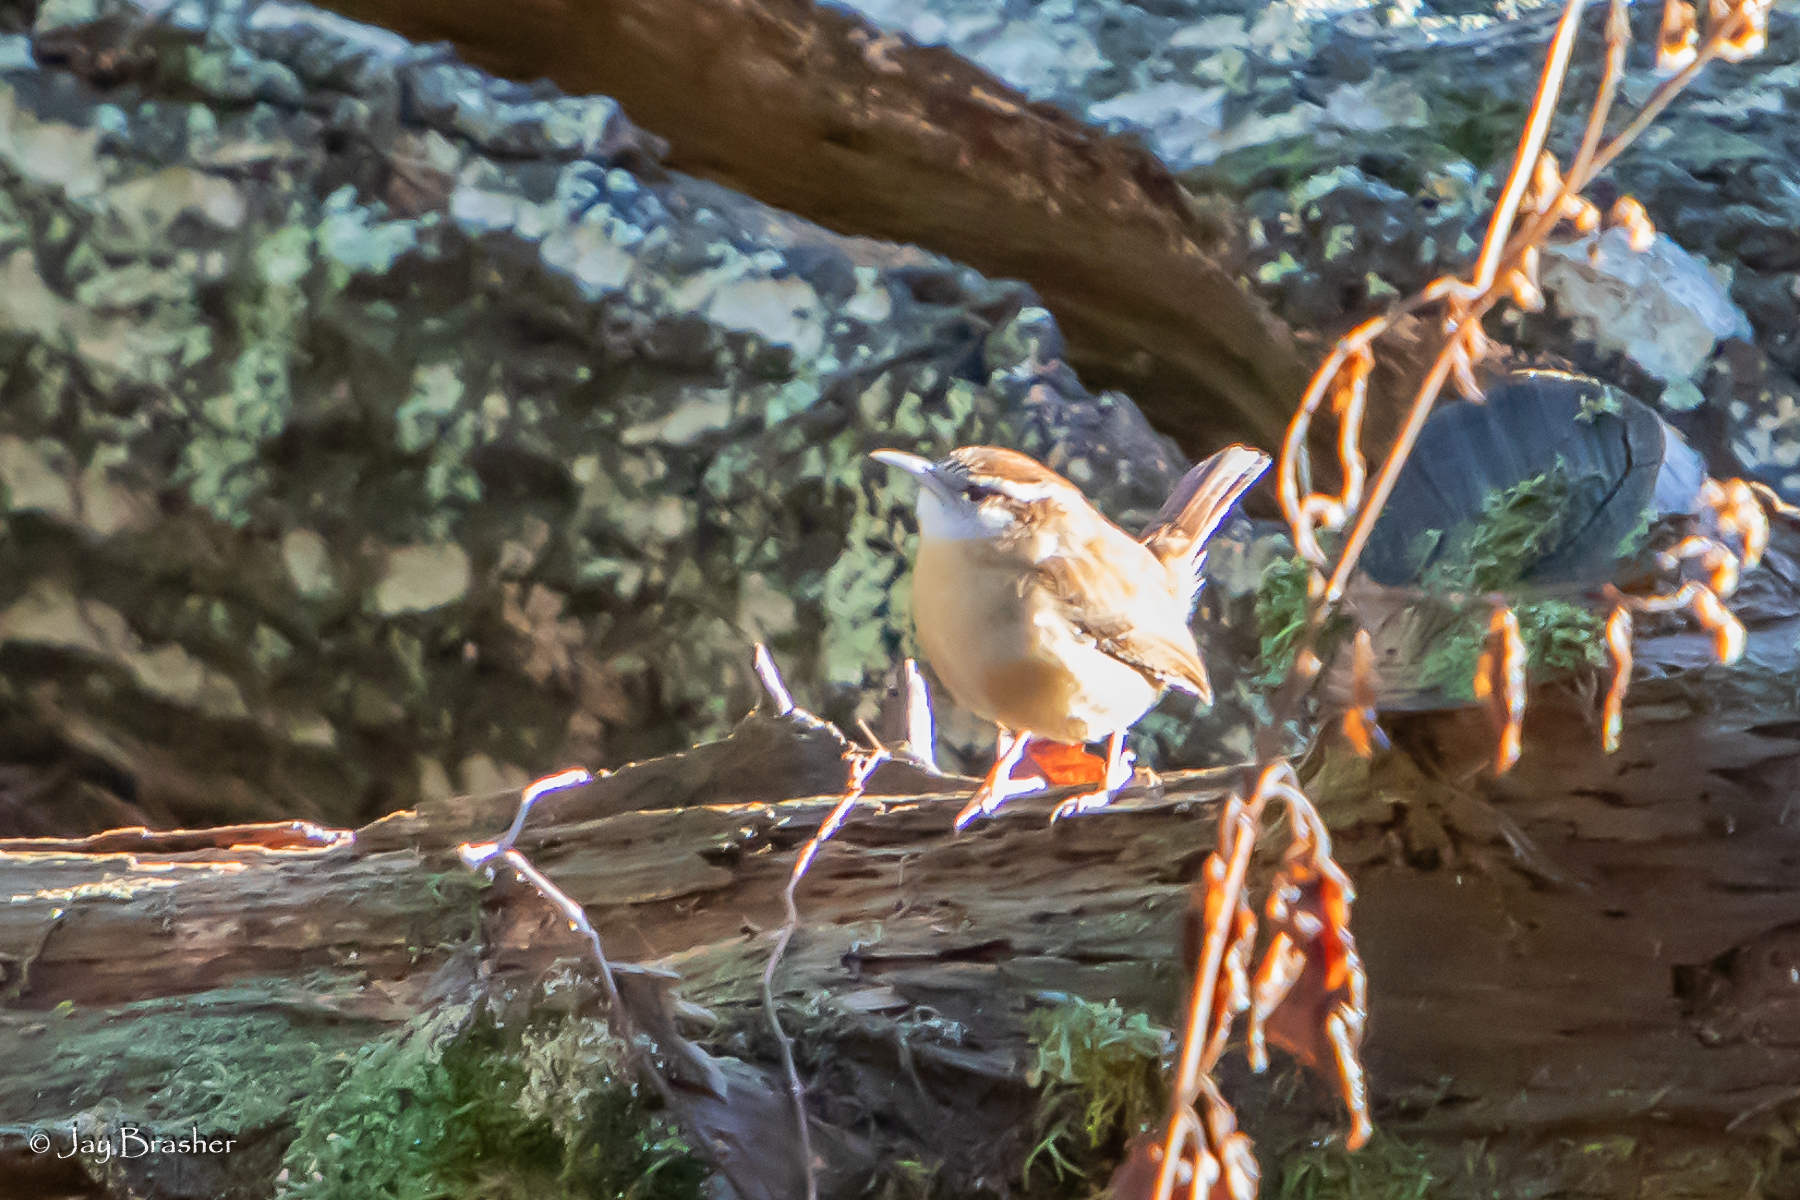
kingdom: Animalia
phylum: Chordata
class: Aves
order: Passeriformes
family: Troglodytidae
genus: Thryothorus
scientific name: Thryothorus ludovicianus
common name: Carolina wren
